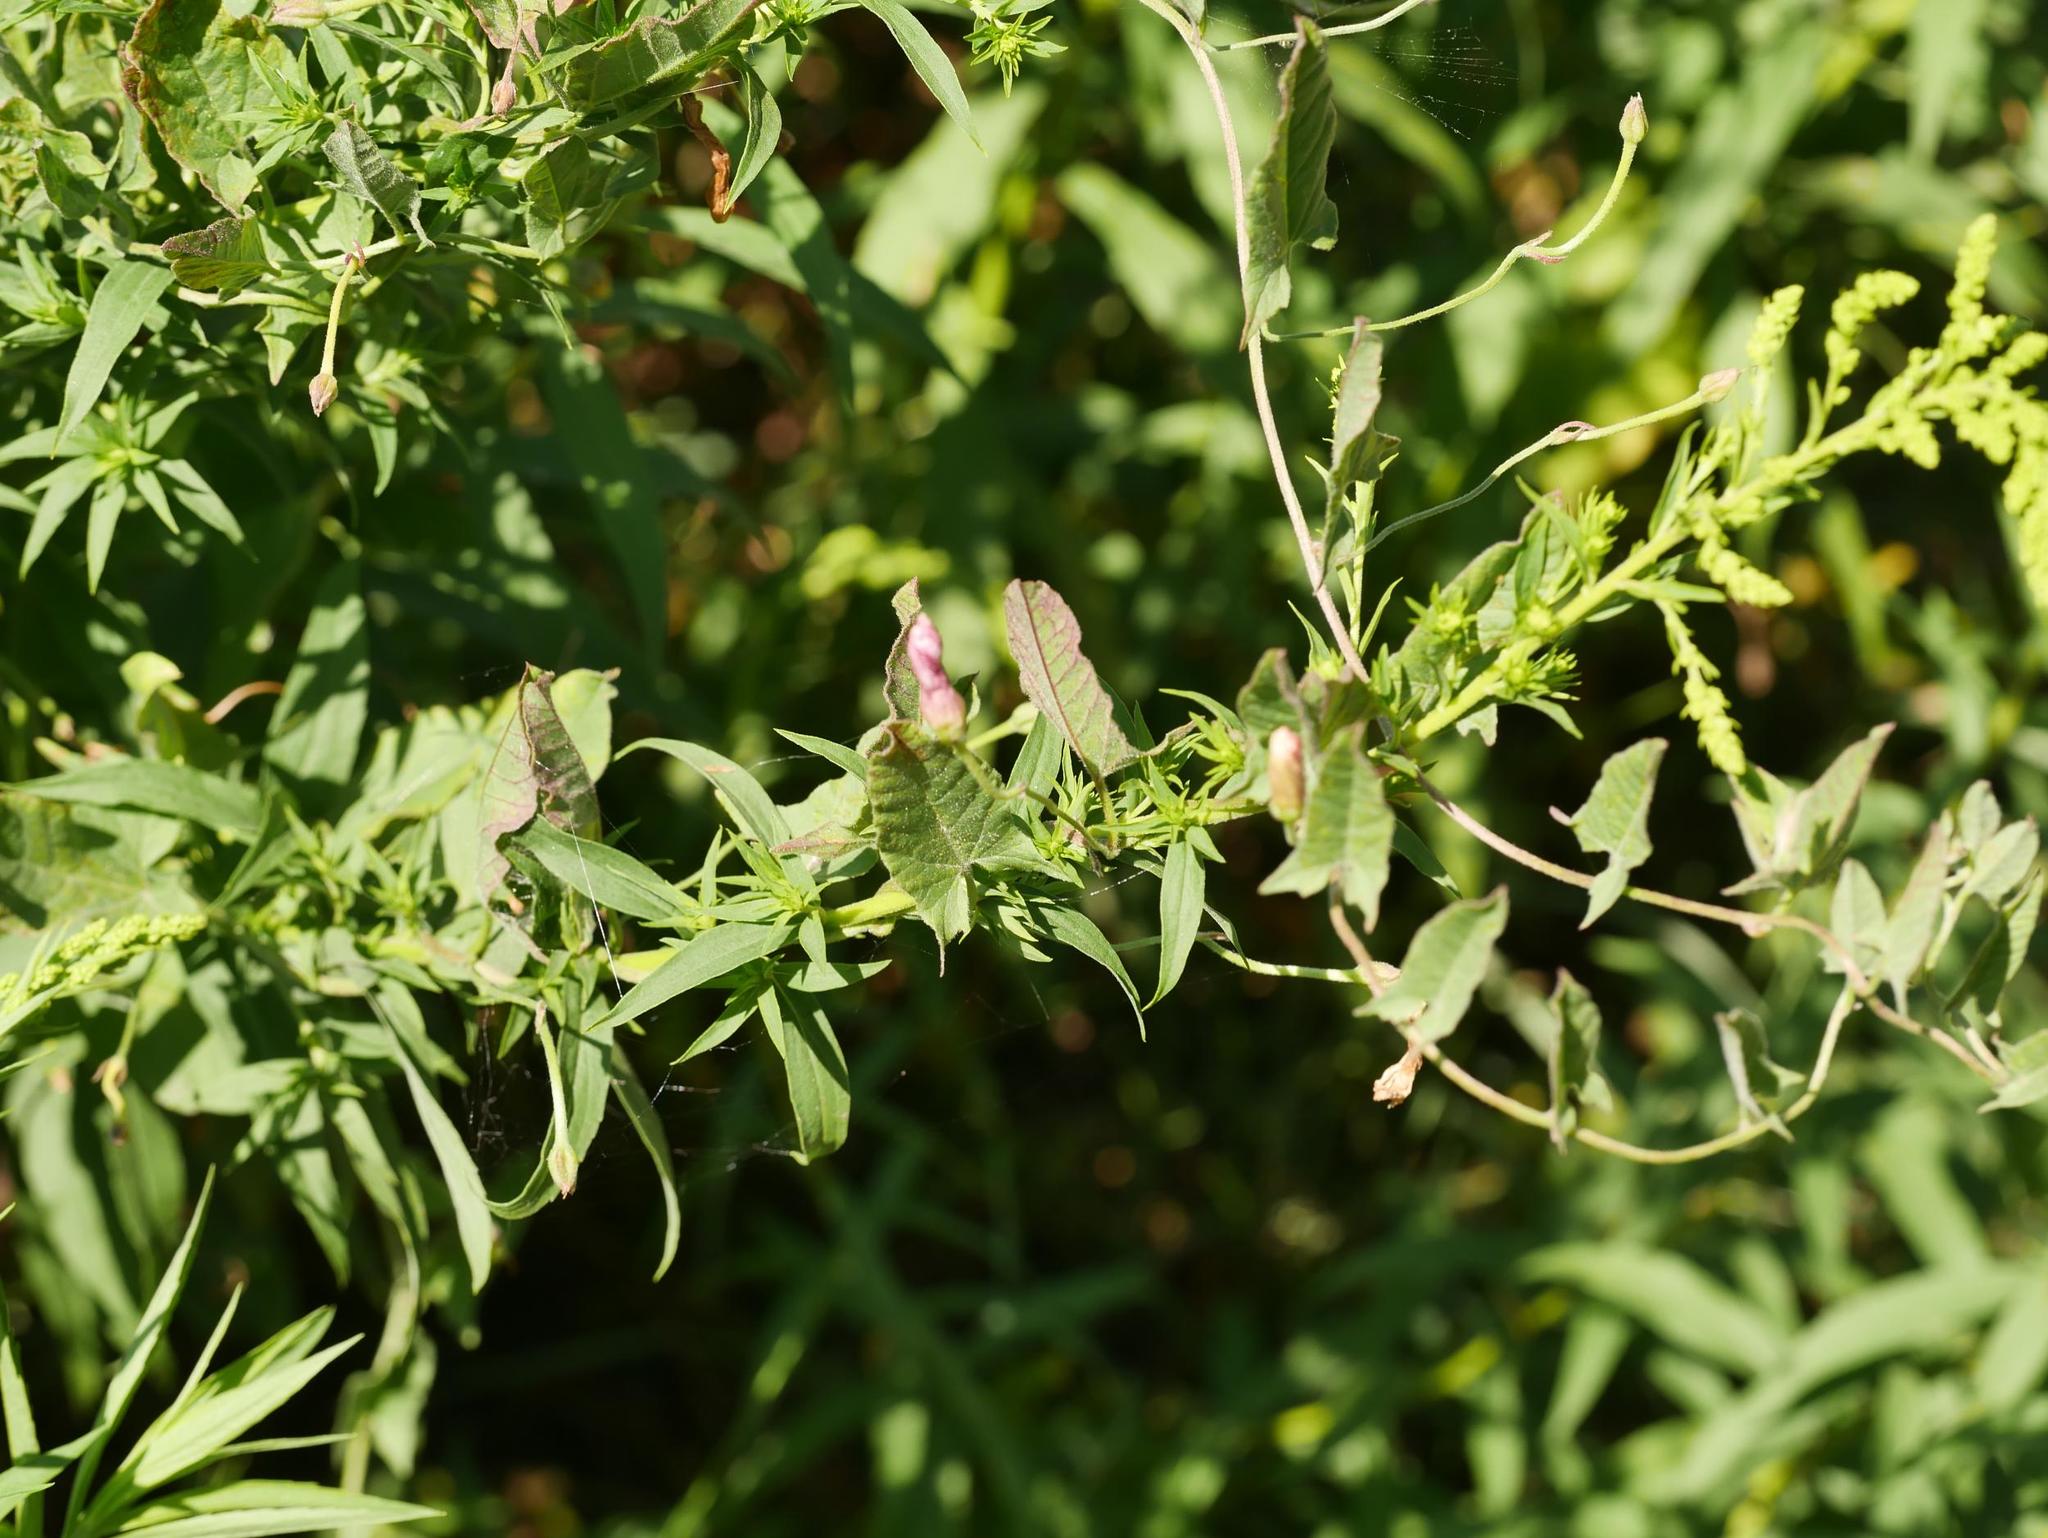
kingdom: Plantae
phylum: Tracheophyta
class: Magnoliopsida
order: Solanales
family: Convolvulaceae
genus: Convolvulus
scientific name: Convolvulus arvensis
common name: Field bindweed
